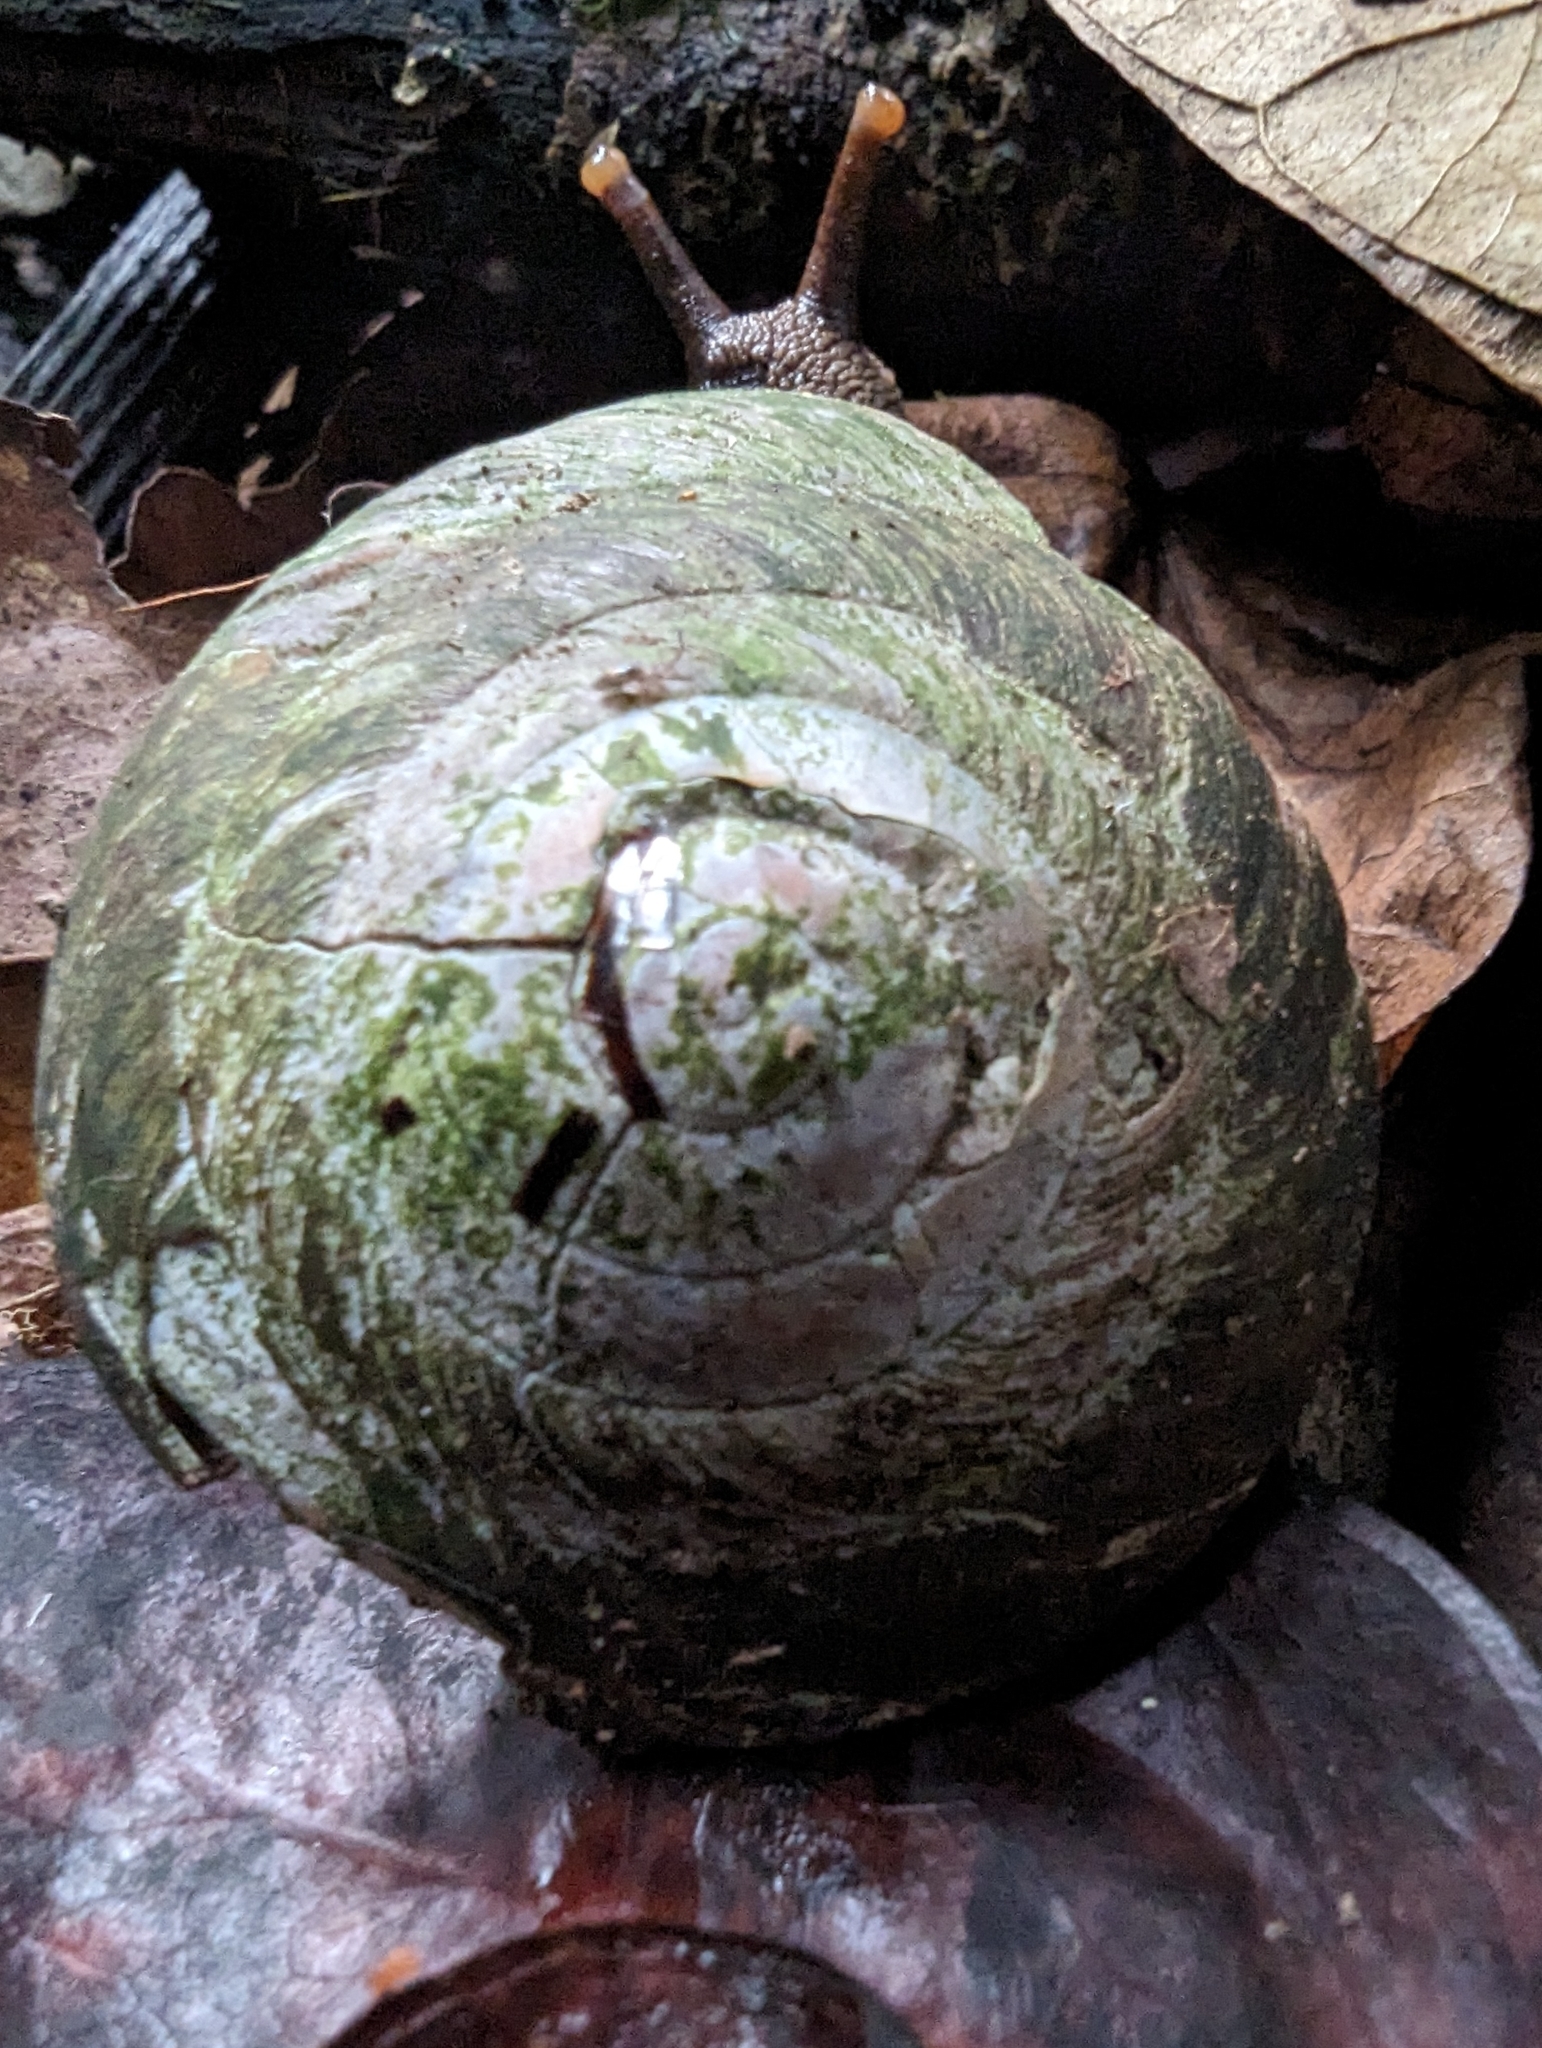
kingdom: Animalia
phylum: Mollusca
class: Gastropoda
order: Stylommatophora
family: Solaropsidae
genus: Caracolus
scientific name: Caracolus carocolla
